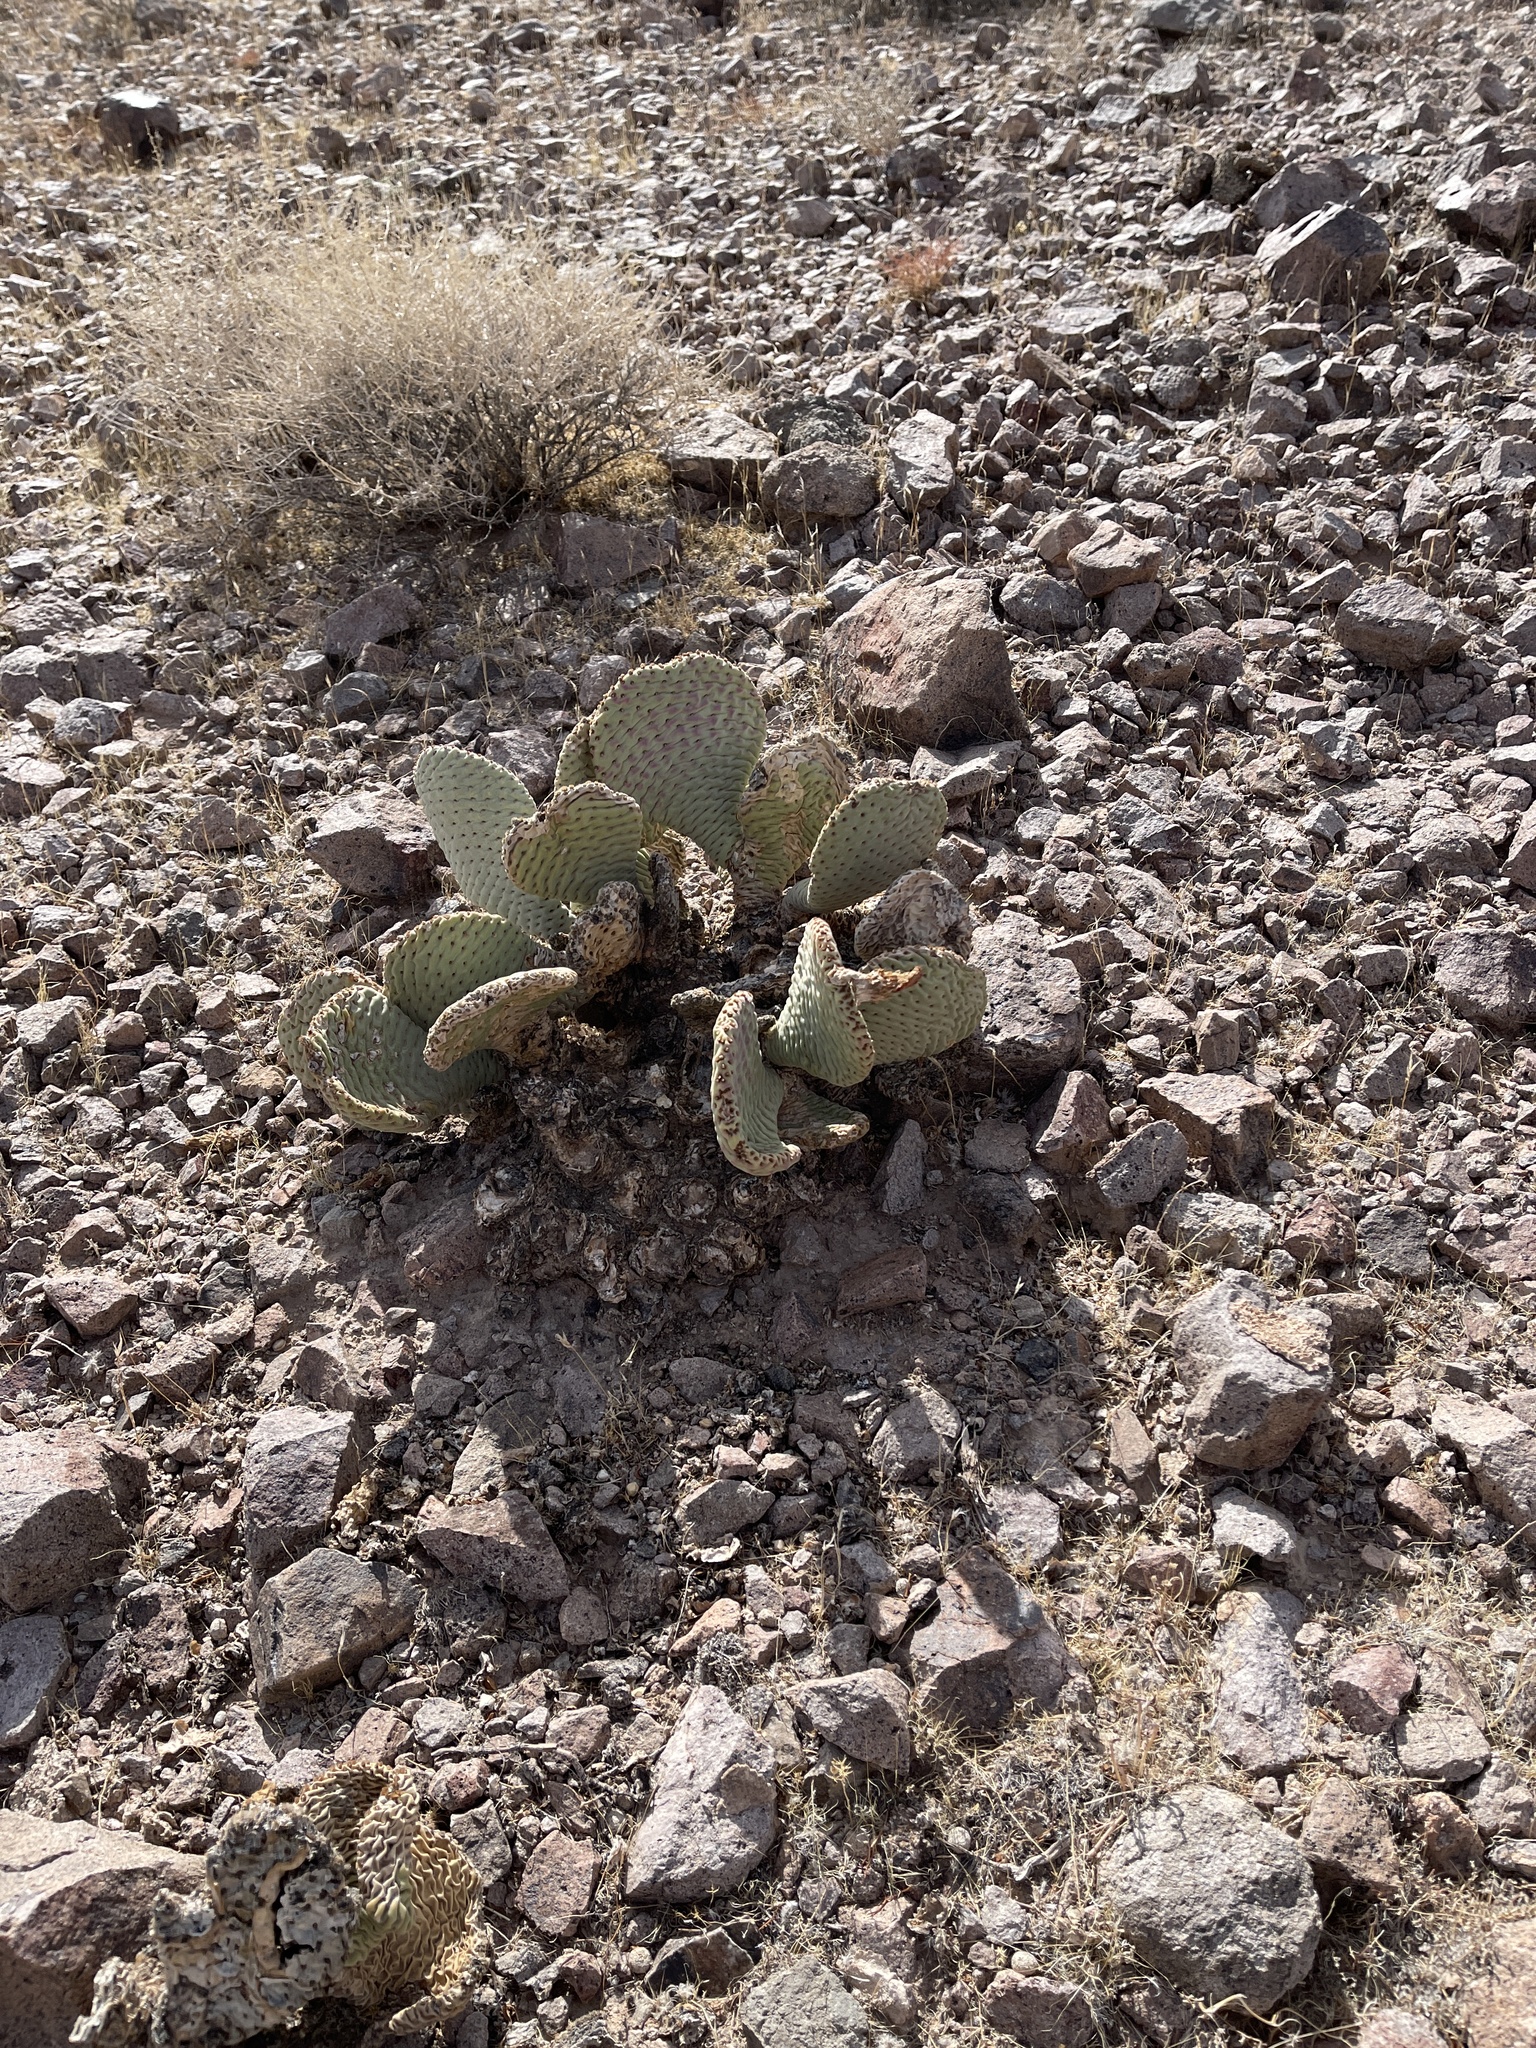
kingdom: Plantae
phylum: Tracheophyta
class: Magnoliopsida
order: Caryophyllales
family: Cactaceae
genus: Opuntia
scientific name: Opuntia basilaris
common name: Beavertail prickly-pear
